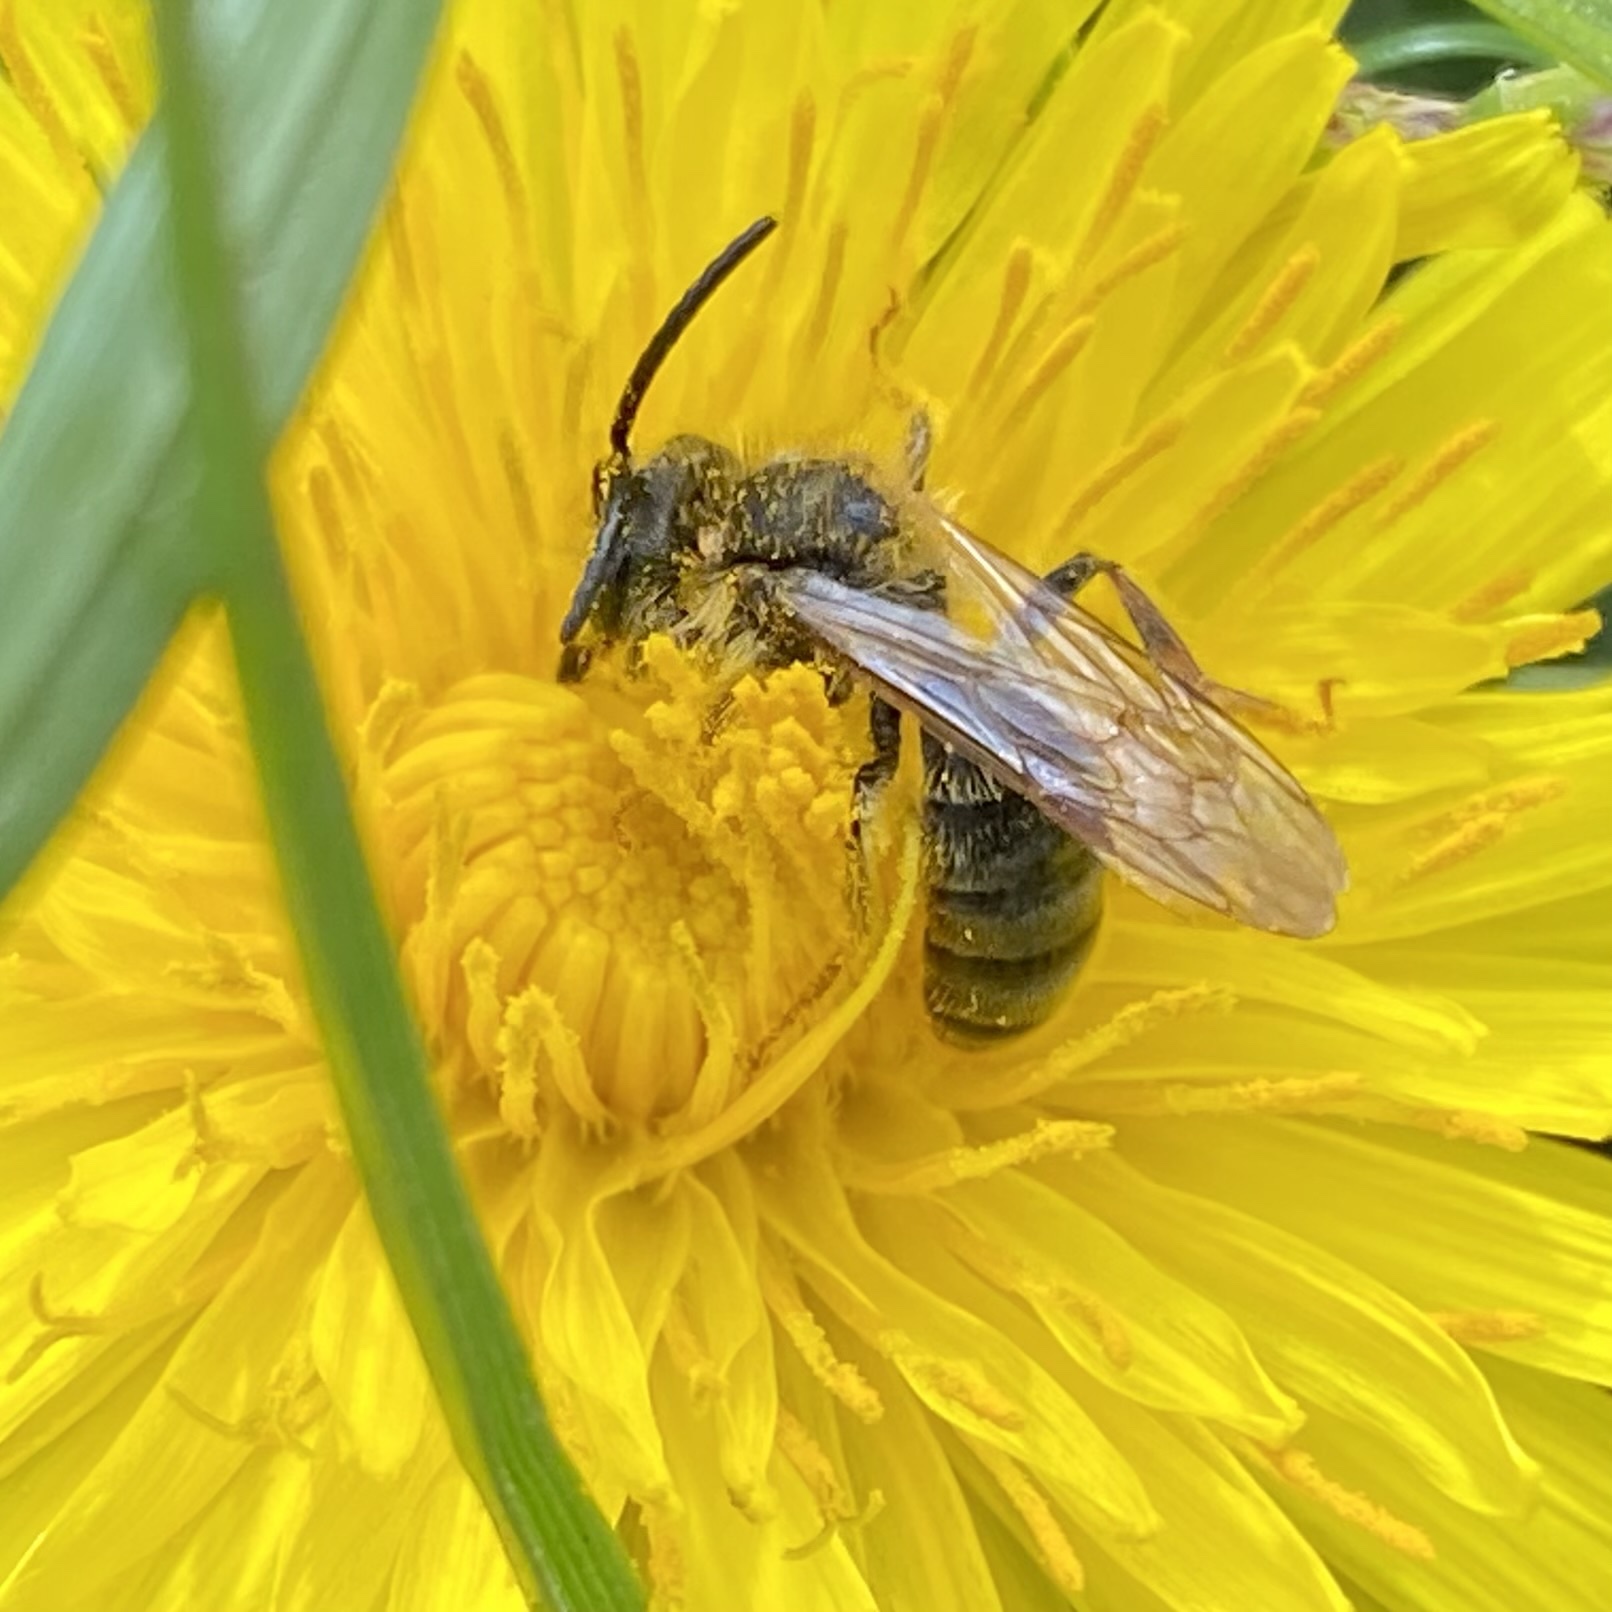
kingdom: Animalia
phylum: Arthropoda
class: Insecta
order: Hymenoptera
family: Andrenidae
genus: Andrena
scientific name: Andrena
